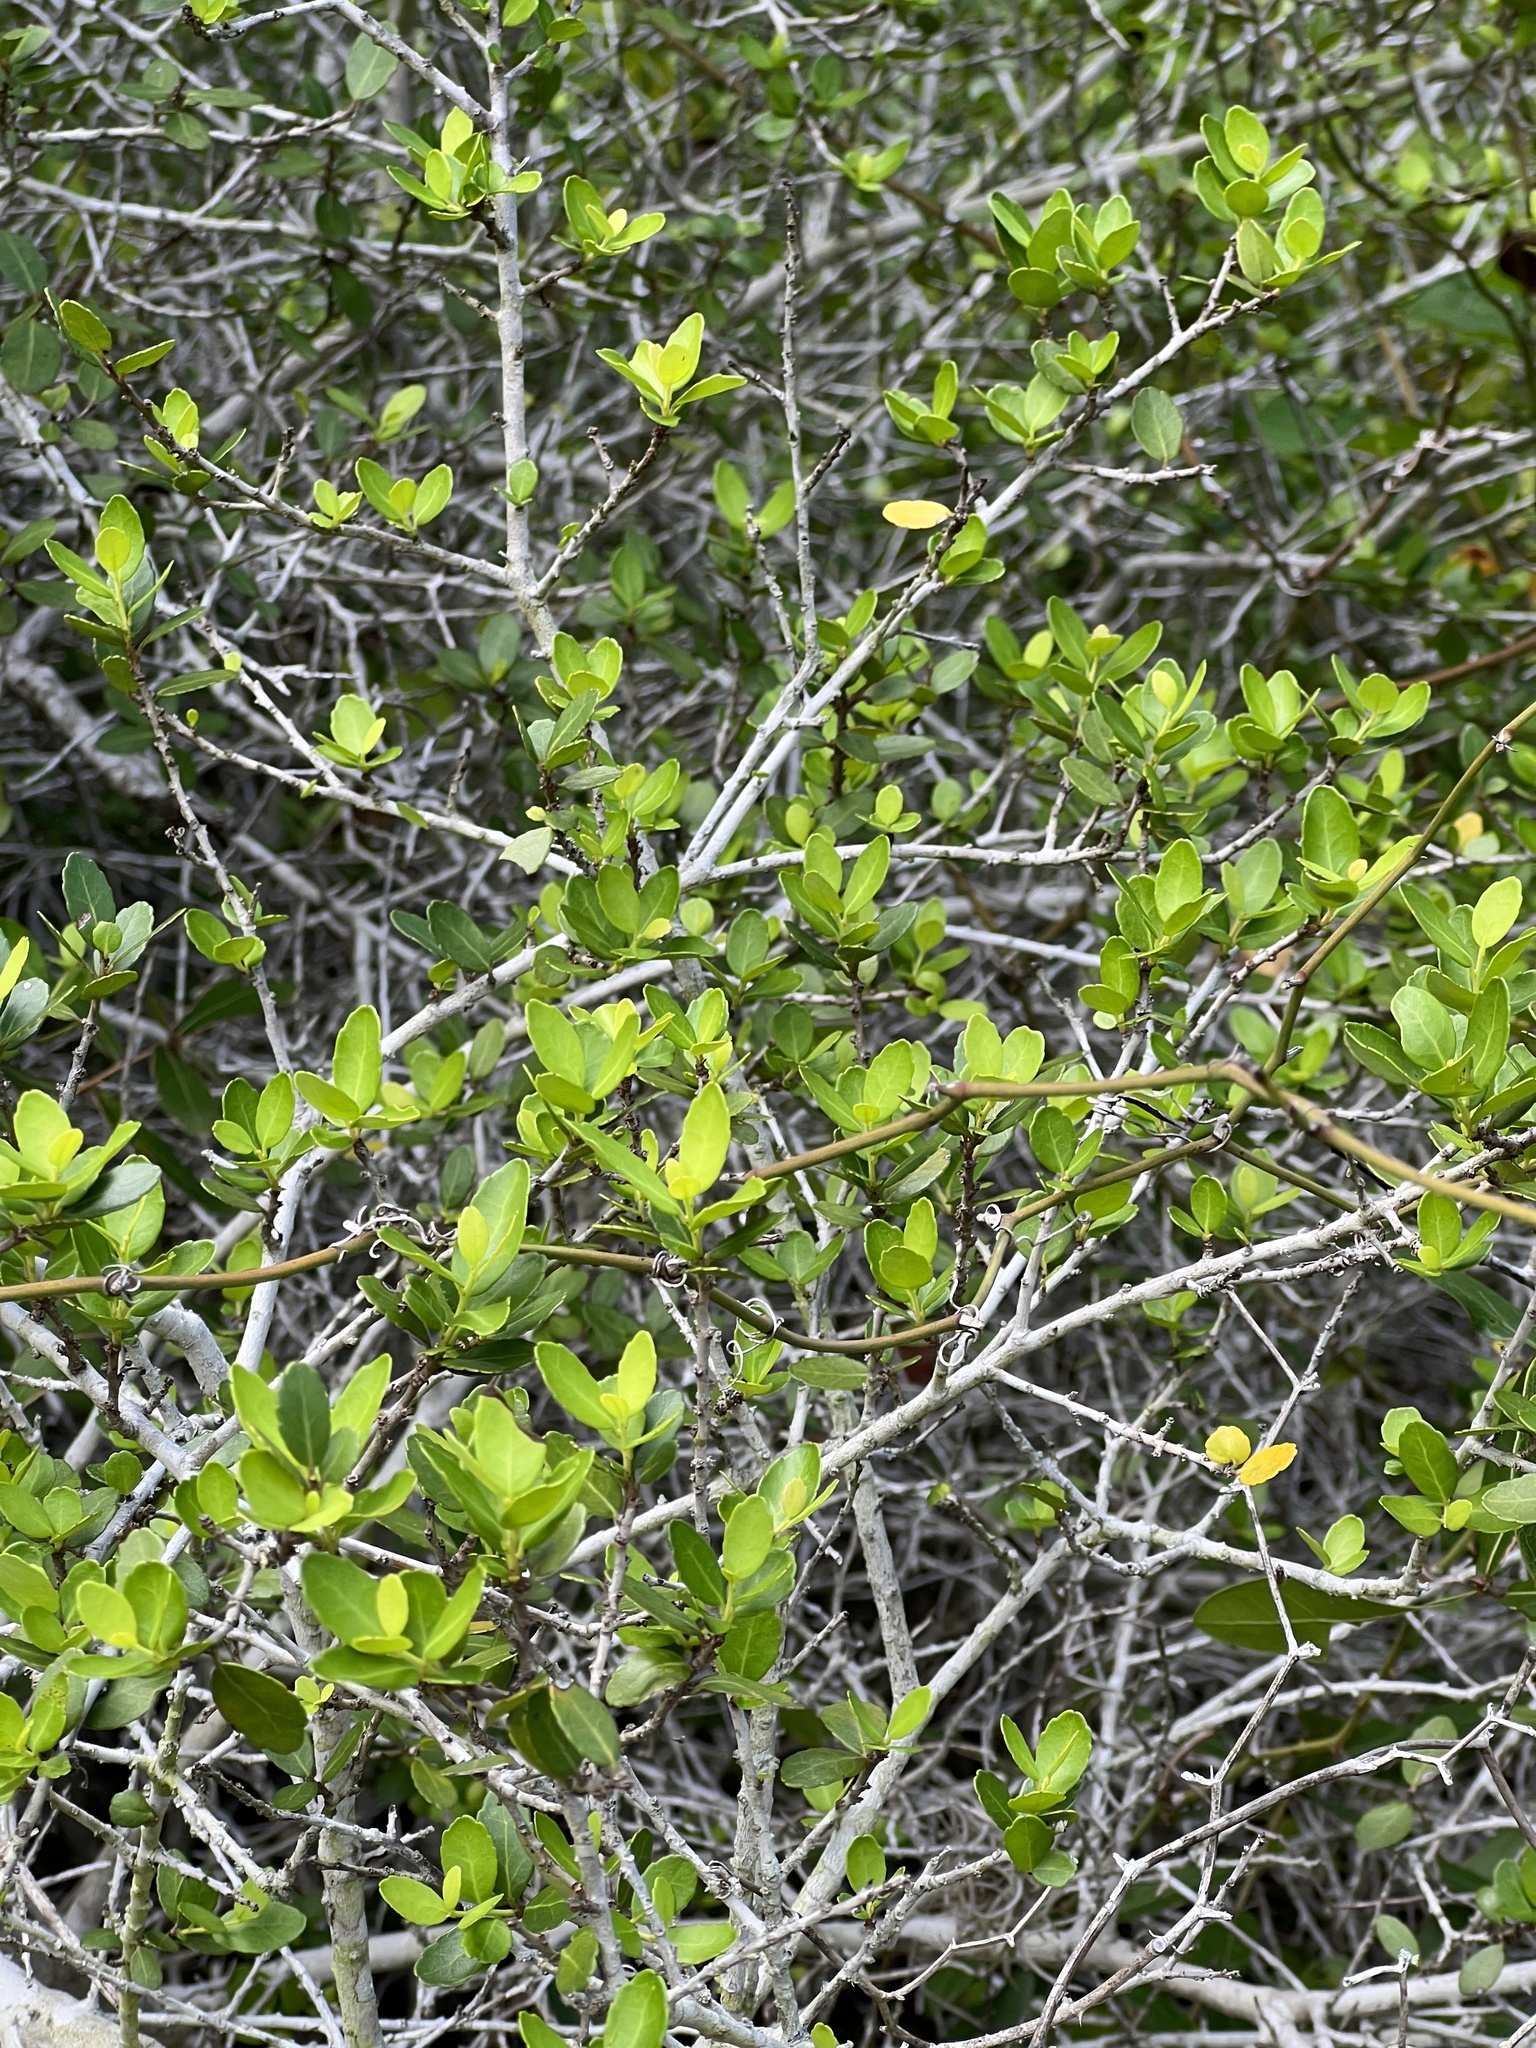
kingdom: Plantae
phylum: Tracheophyta
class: Magnoliopsida
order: Aquifoliales
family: Aquifoliaceae
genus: Ilex
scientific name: Ilex vomitoria
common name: Yaupon holly
